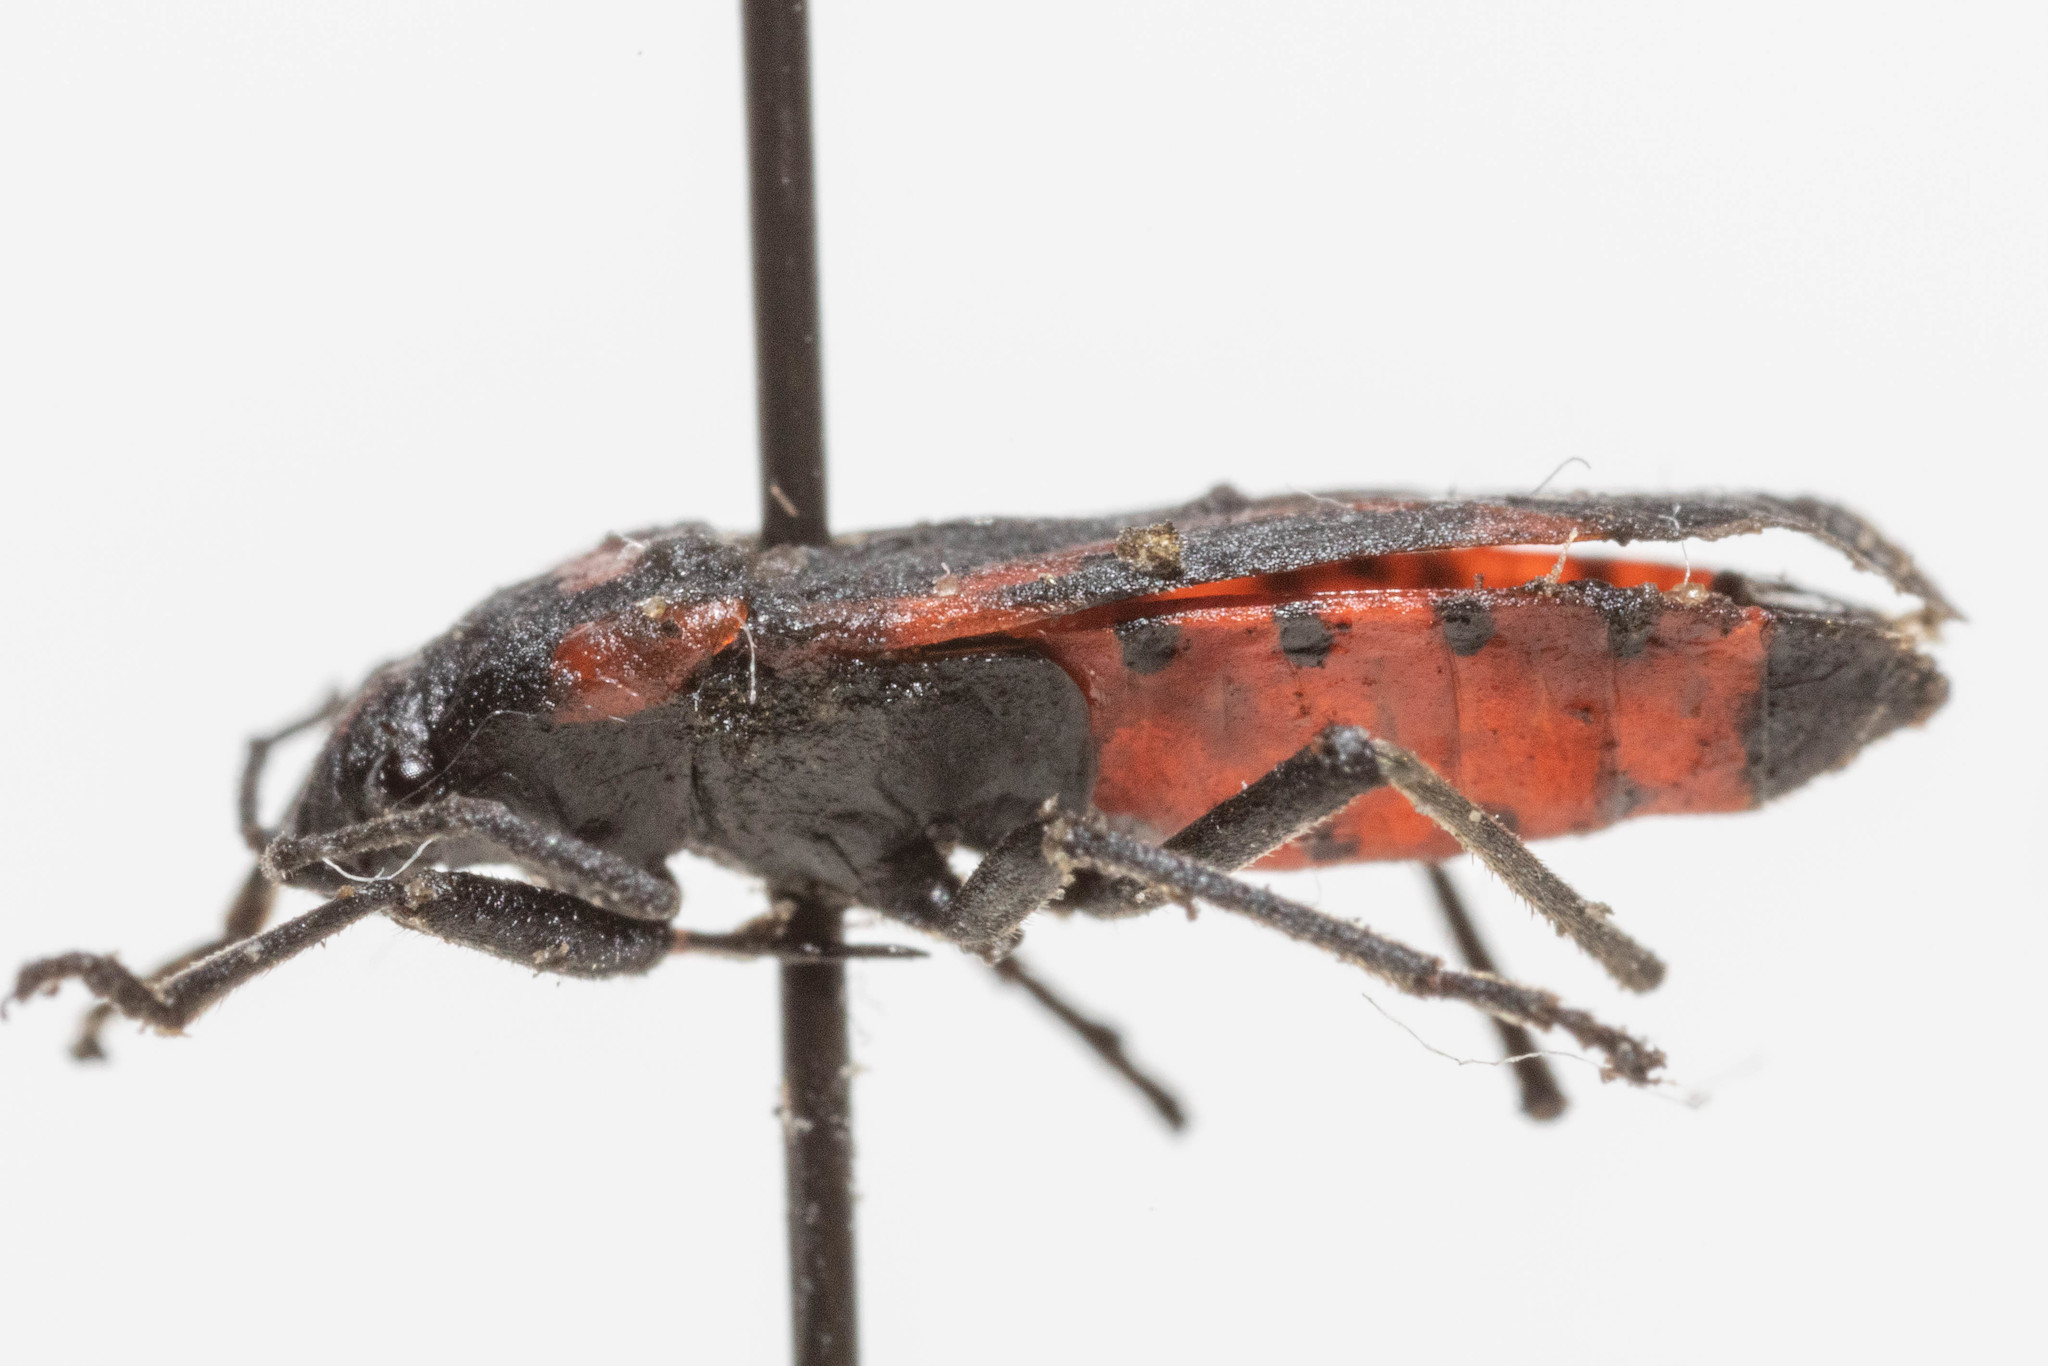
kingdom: Animalia
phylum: Arthropoda
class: Insecta
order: Hemiptera
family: Lygaeidae
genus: Lygaeus
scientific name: Lygaeus kalmii
